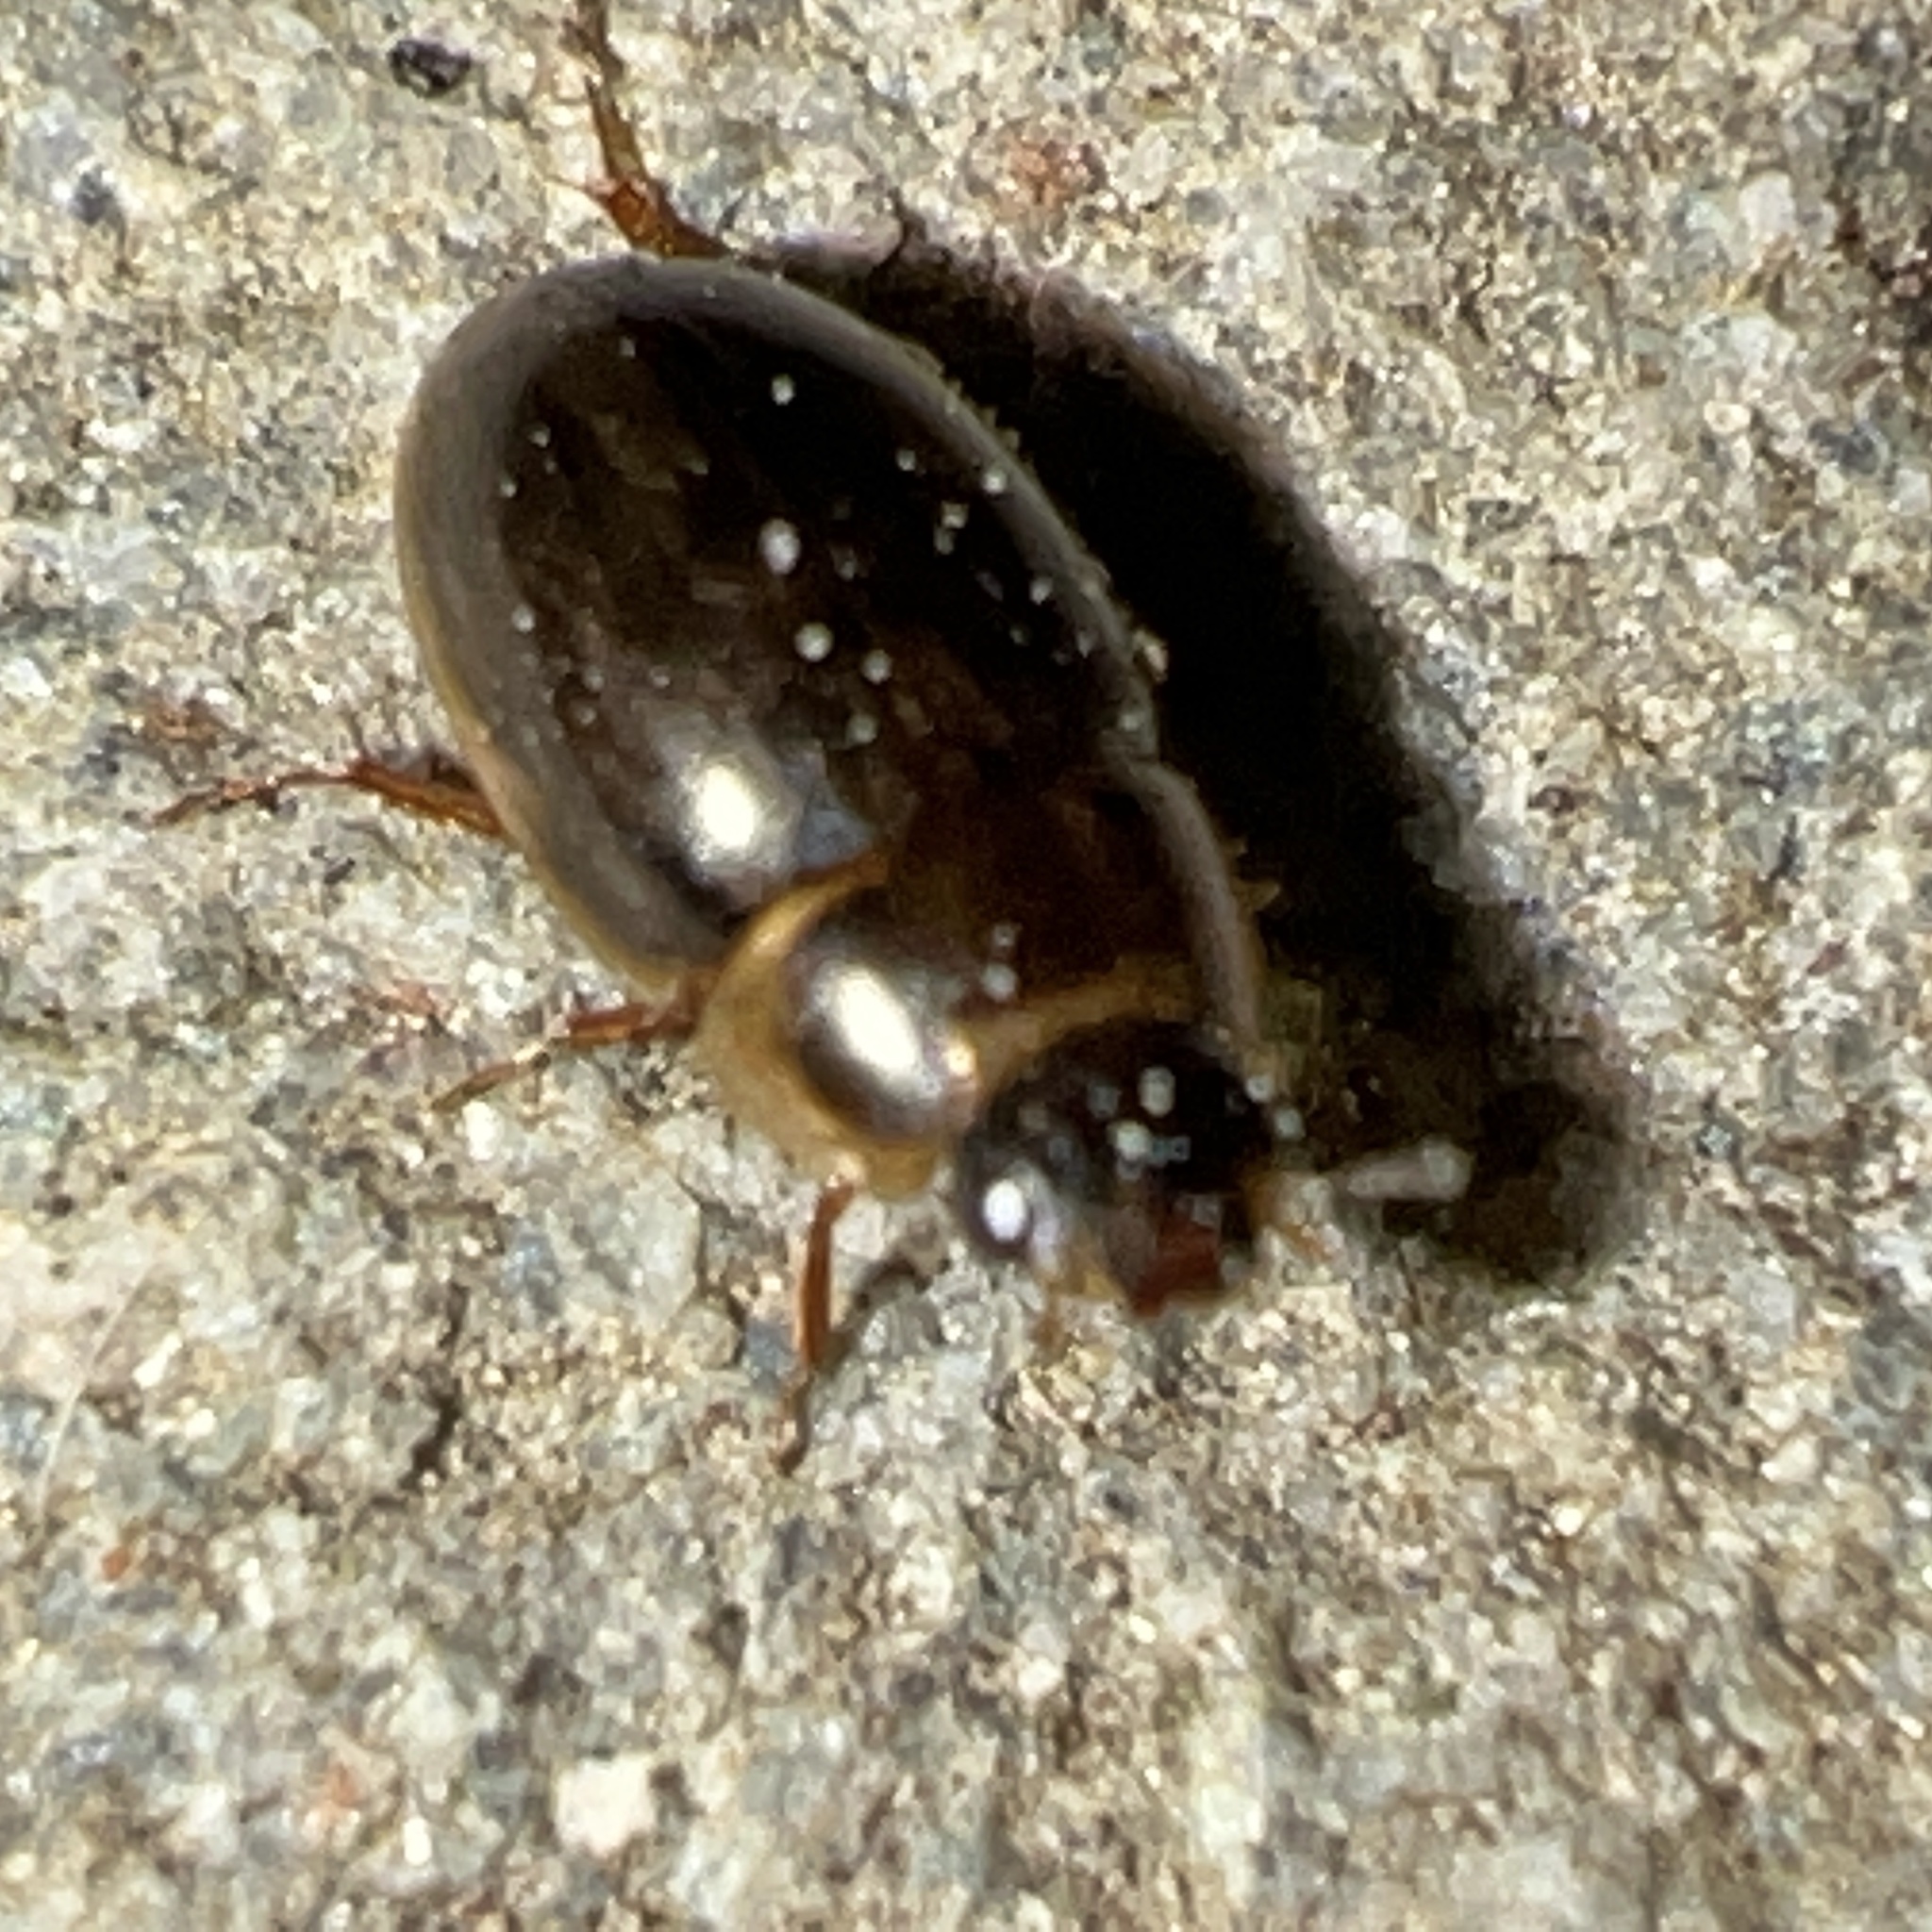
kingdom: Animalia
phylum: Arthropoda
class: Insecta
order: Coleoptera
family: Hydrophilidae
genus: Enochrus
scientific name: Enochrus
